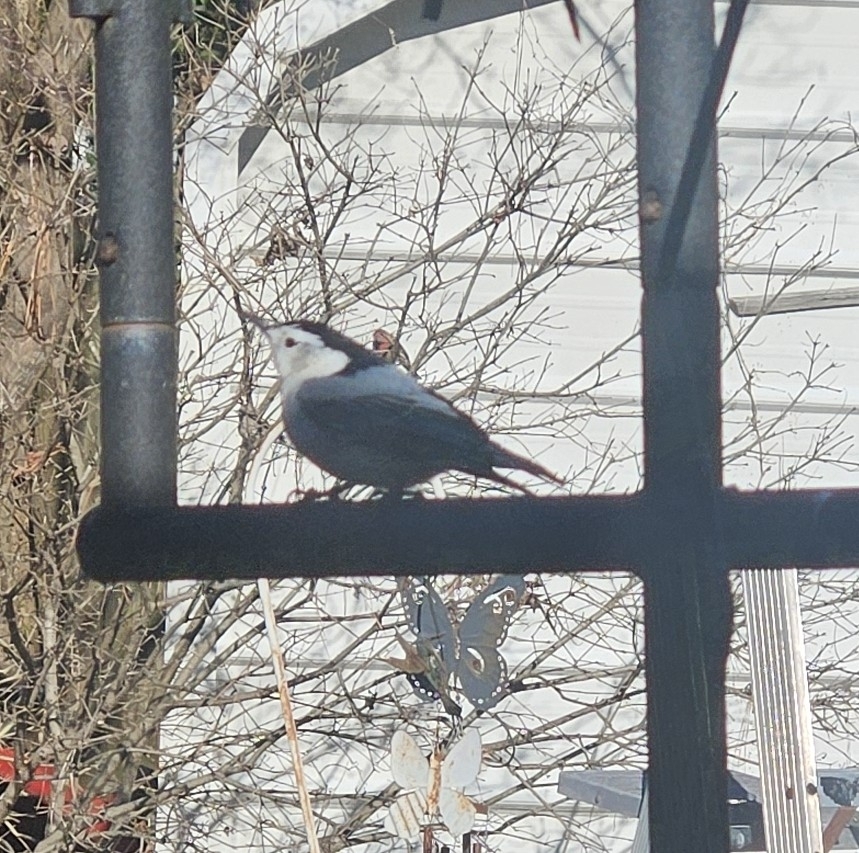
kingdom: Animalia
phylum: Chordata
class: Aves
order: Passeriformes
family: Sittidae
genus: Sitta
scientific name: Sitta carolinensis
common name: White-breasted nuthatch
